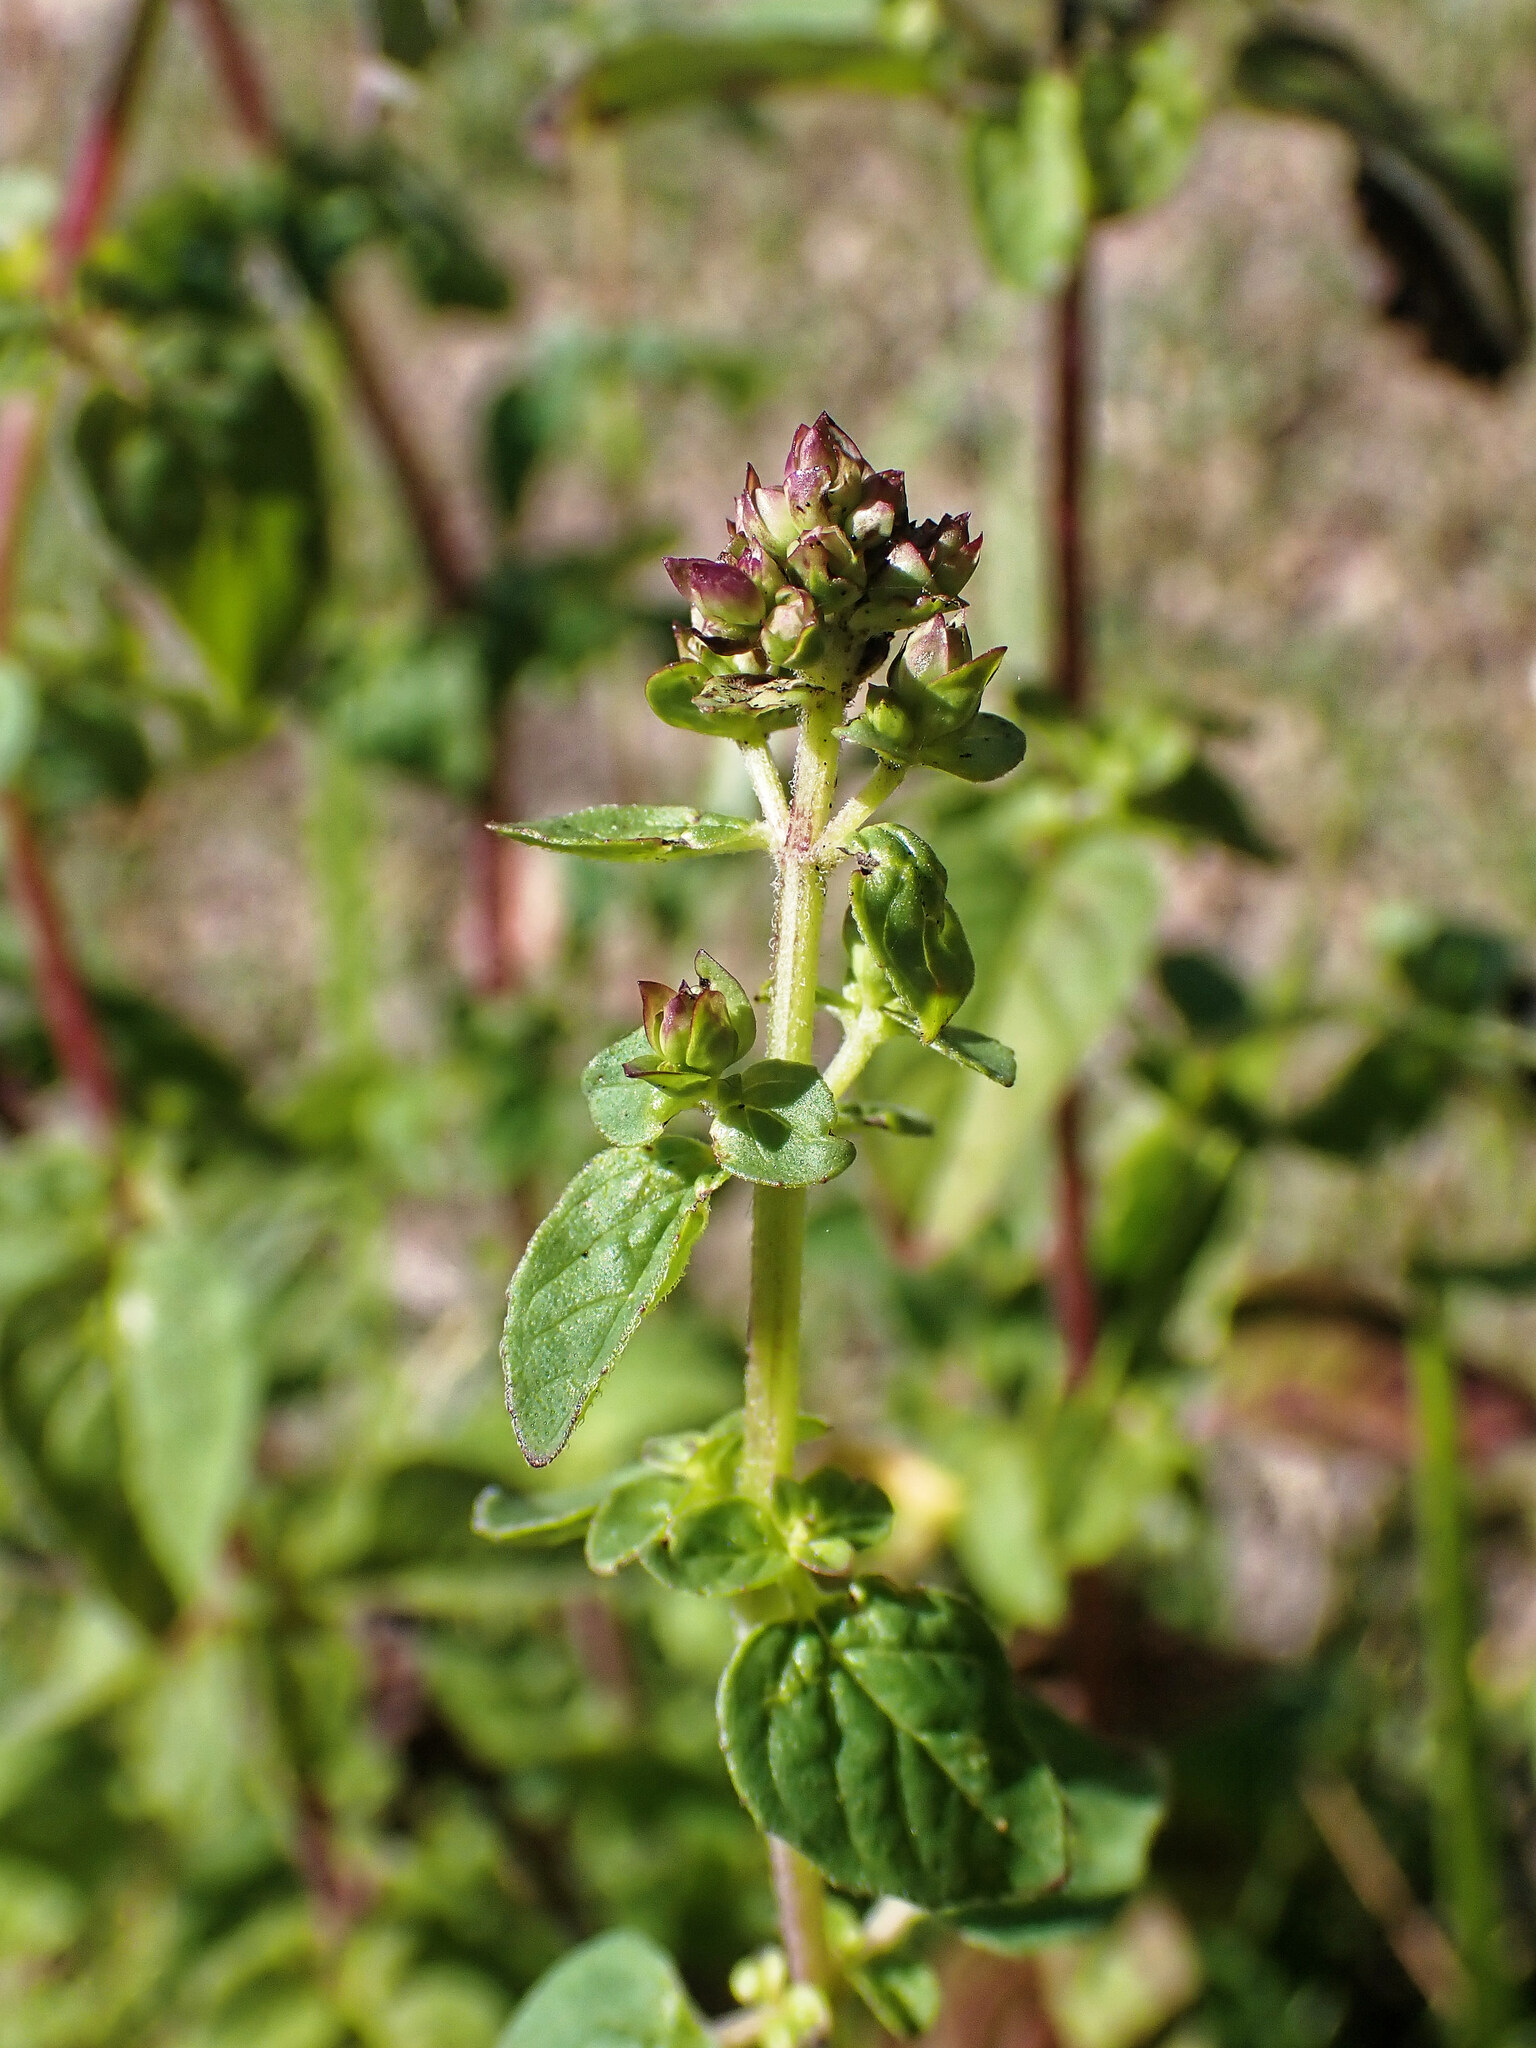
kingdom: Plantae
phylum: Tracheophyta
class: Magnoliopsida
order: Lamiales
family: Lamiaceae
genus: Origanum
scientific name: Origanum vulgare
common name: Wild marjoram
